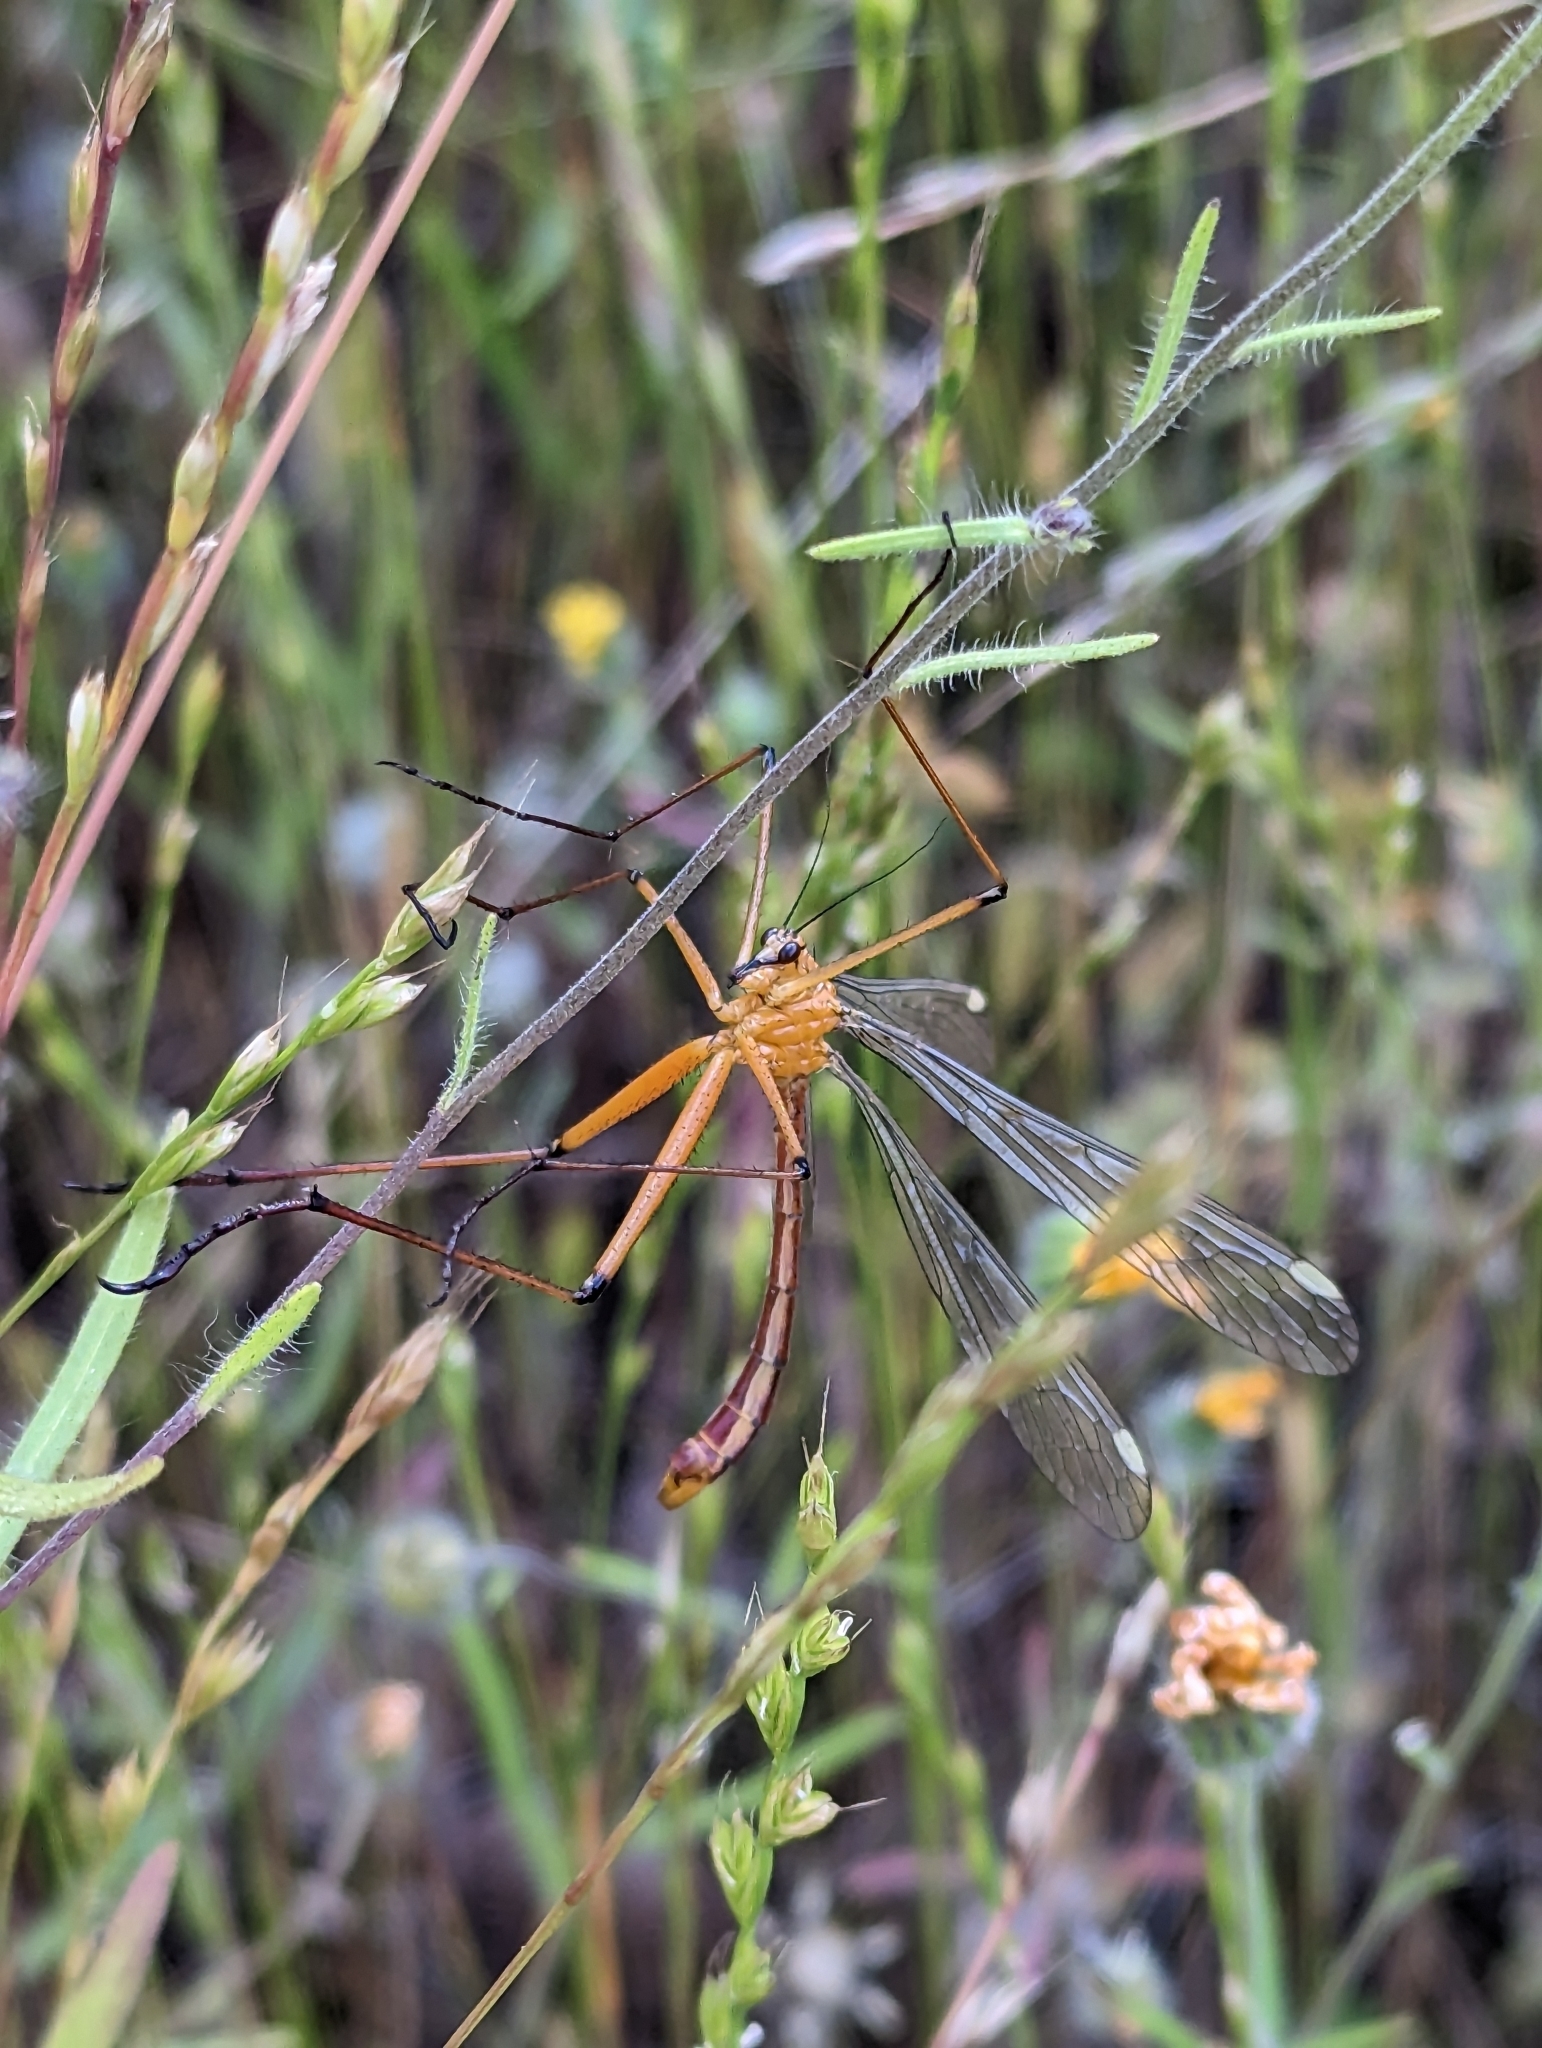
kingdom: Animalia
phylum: Arthropoda
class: Insecta
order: Mecoptera
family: Bittacidae
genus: Bittacus
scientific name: Bittacus chlorostigma
